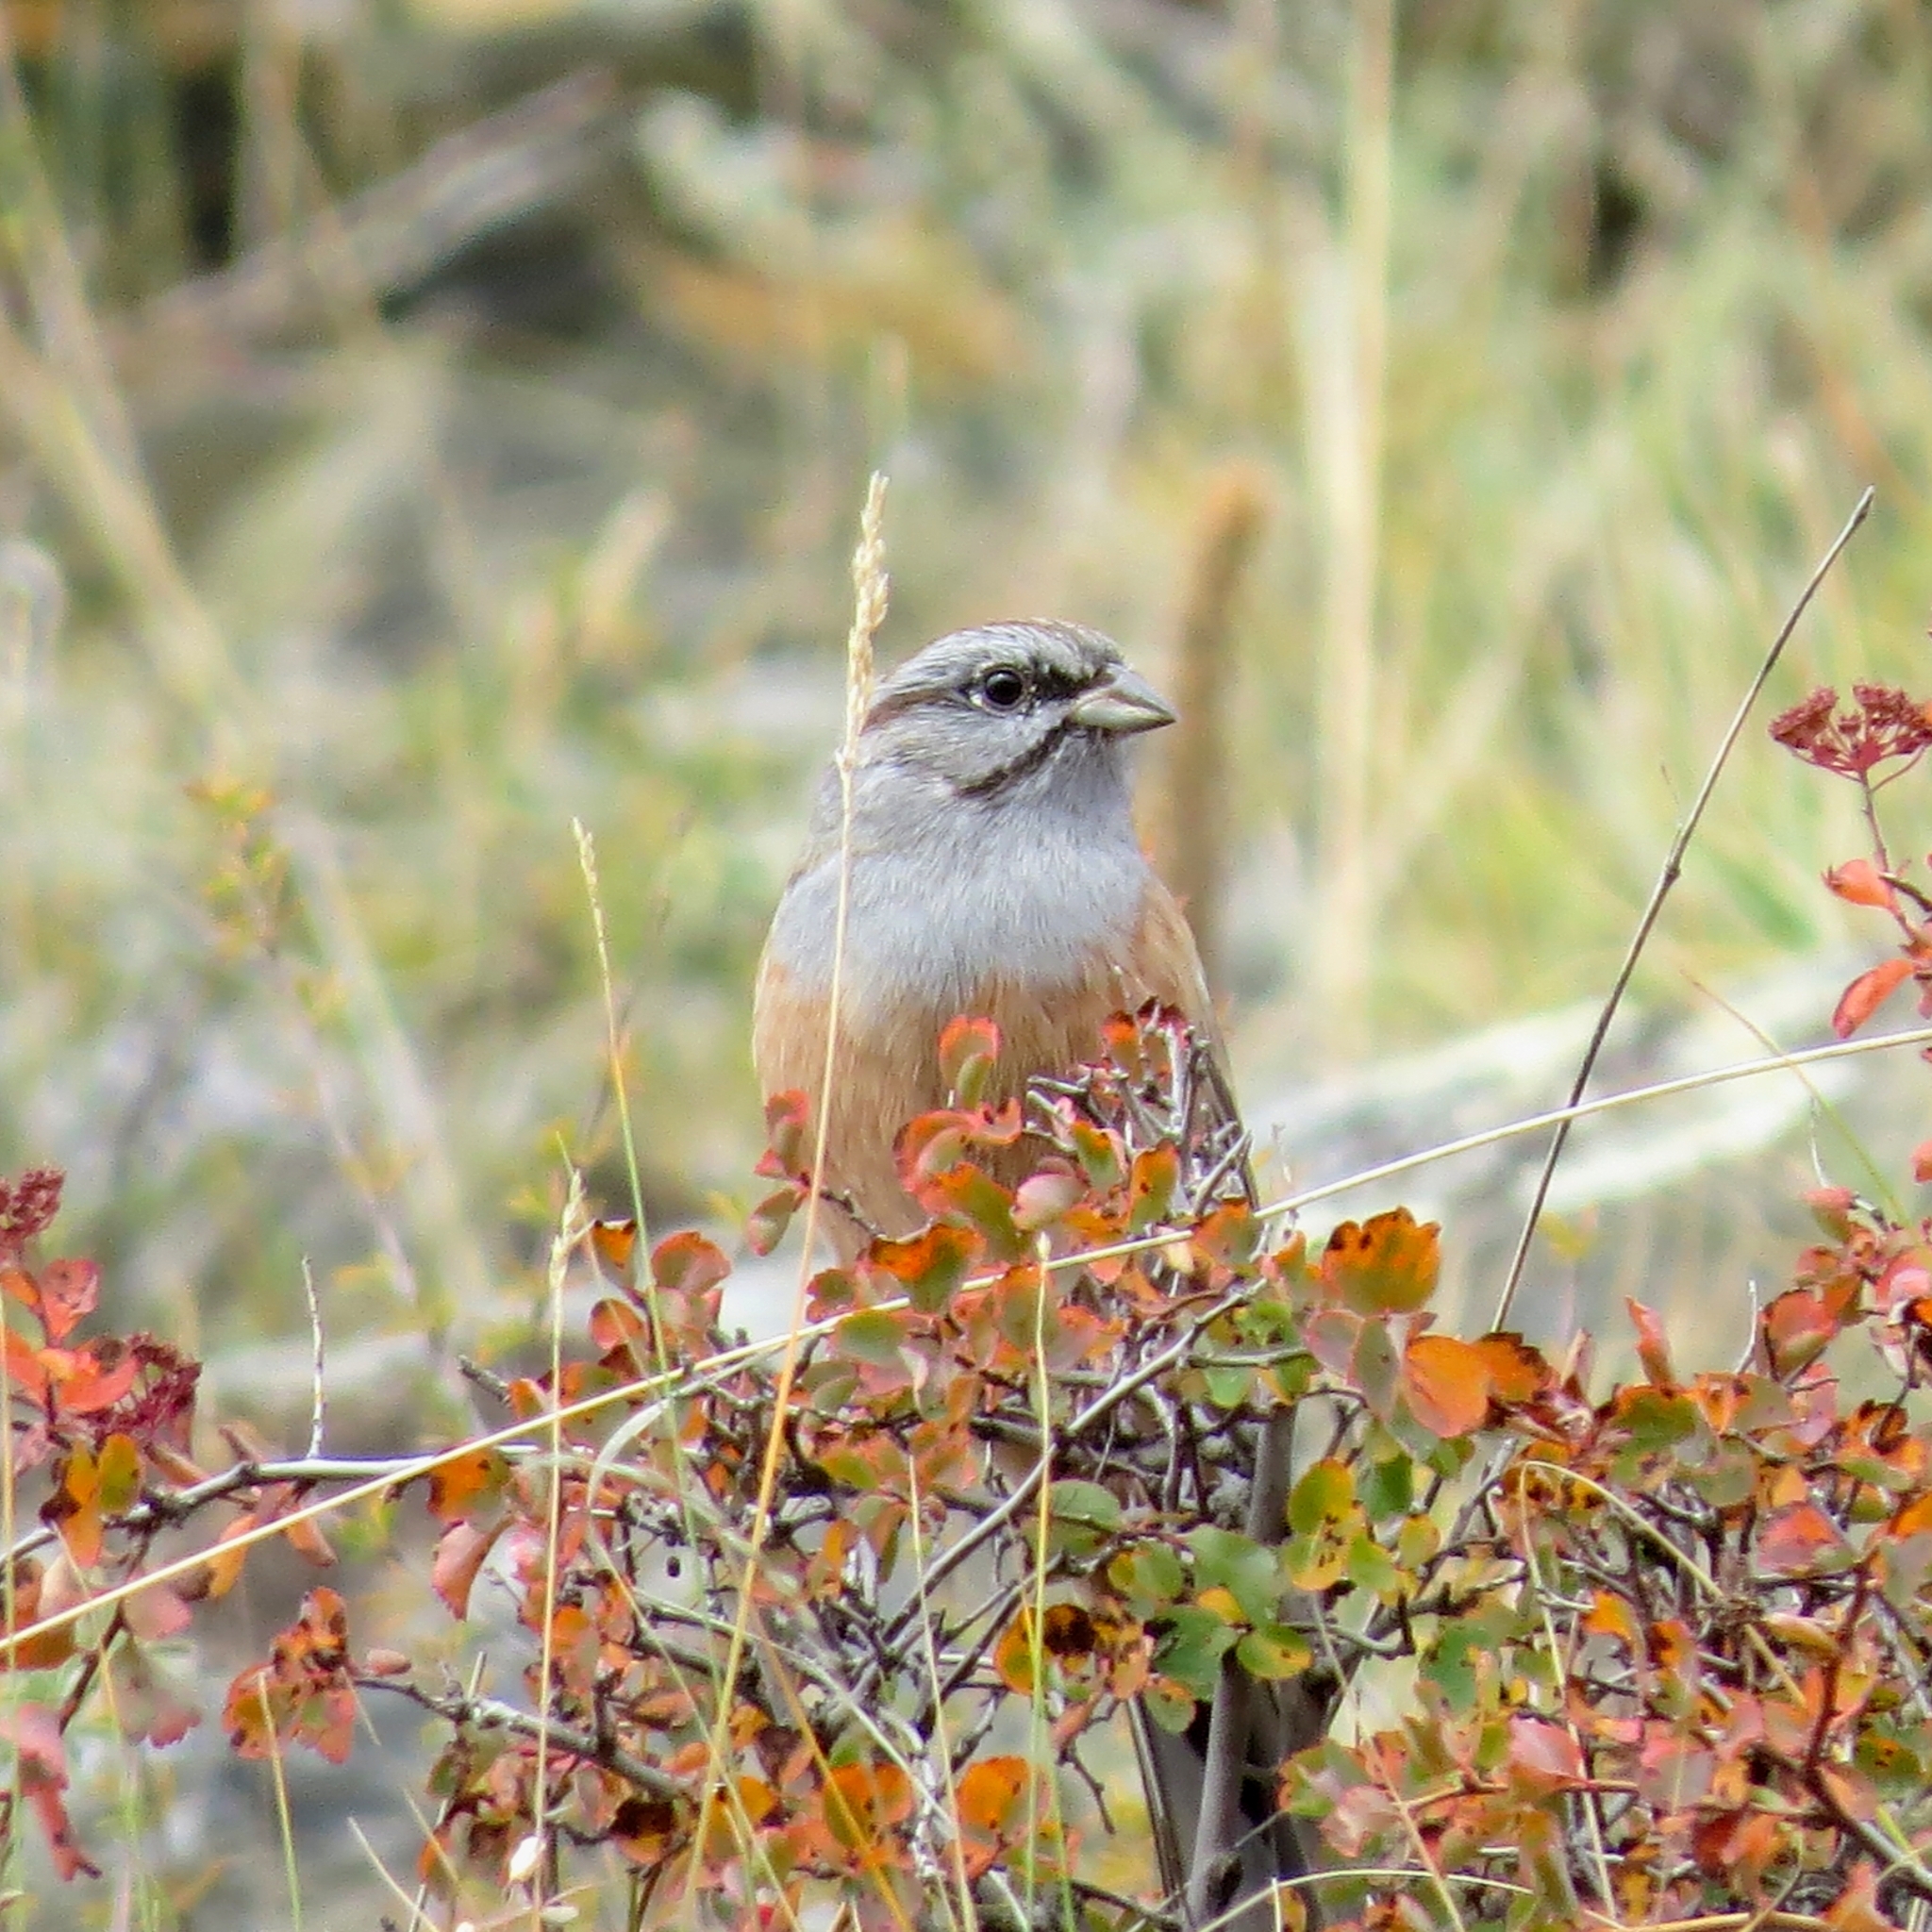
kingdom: Animalia
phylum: Chordata
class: Aves
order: Passeriformes
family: Emberizidae
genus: Emberiza
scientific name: Emberiza godlewskii
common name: Godlewski's bunting
